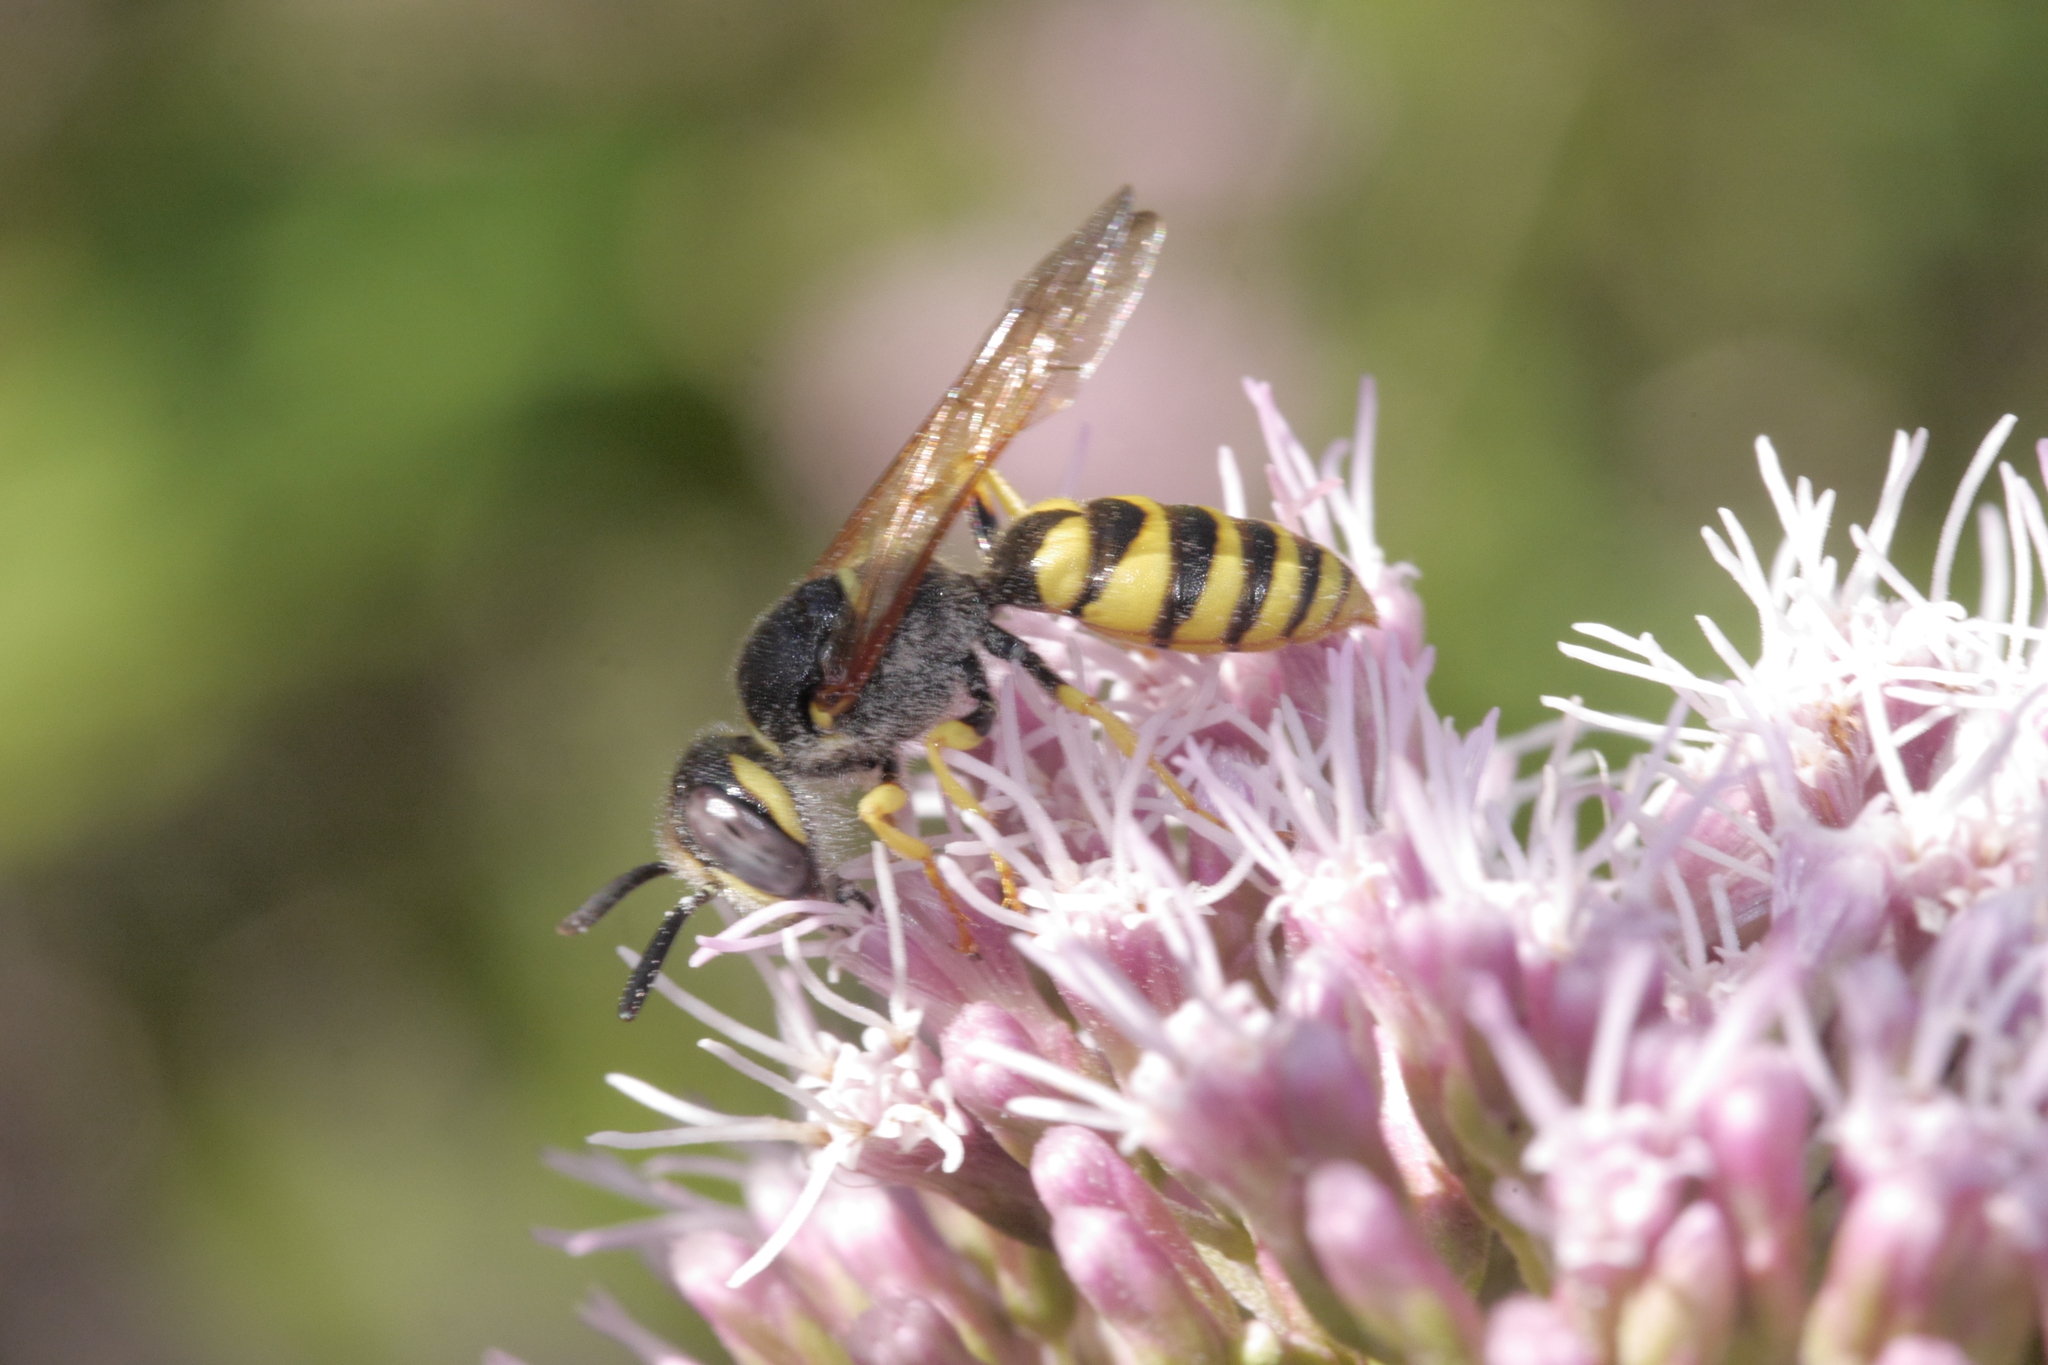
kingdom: Animalia
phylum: Arthropoda
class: Insecta
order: Hymenoptera
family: Crabronidae
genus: Philanthus
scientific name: Philanthus triangulum
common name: Bee wolf
